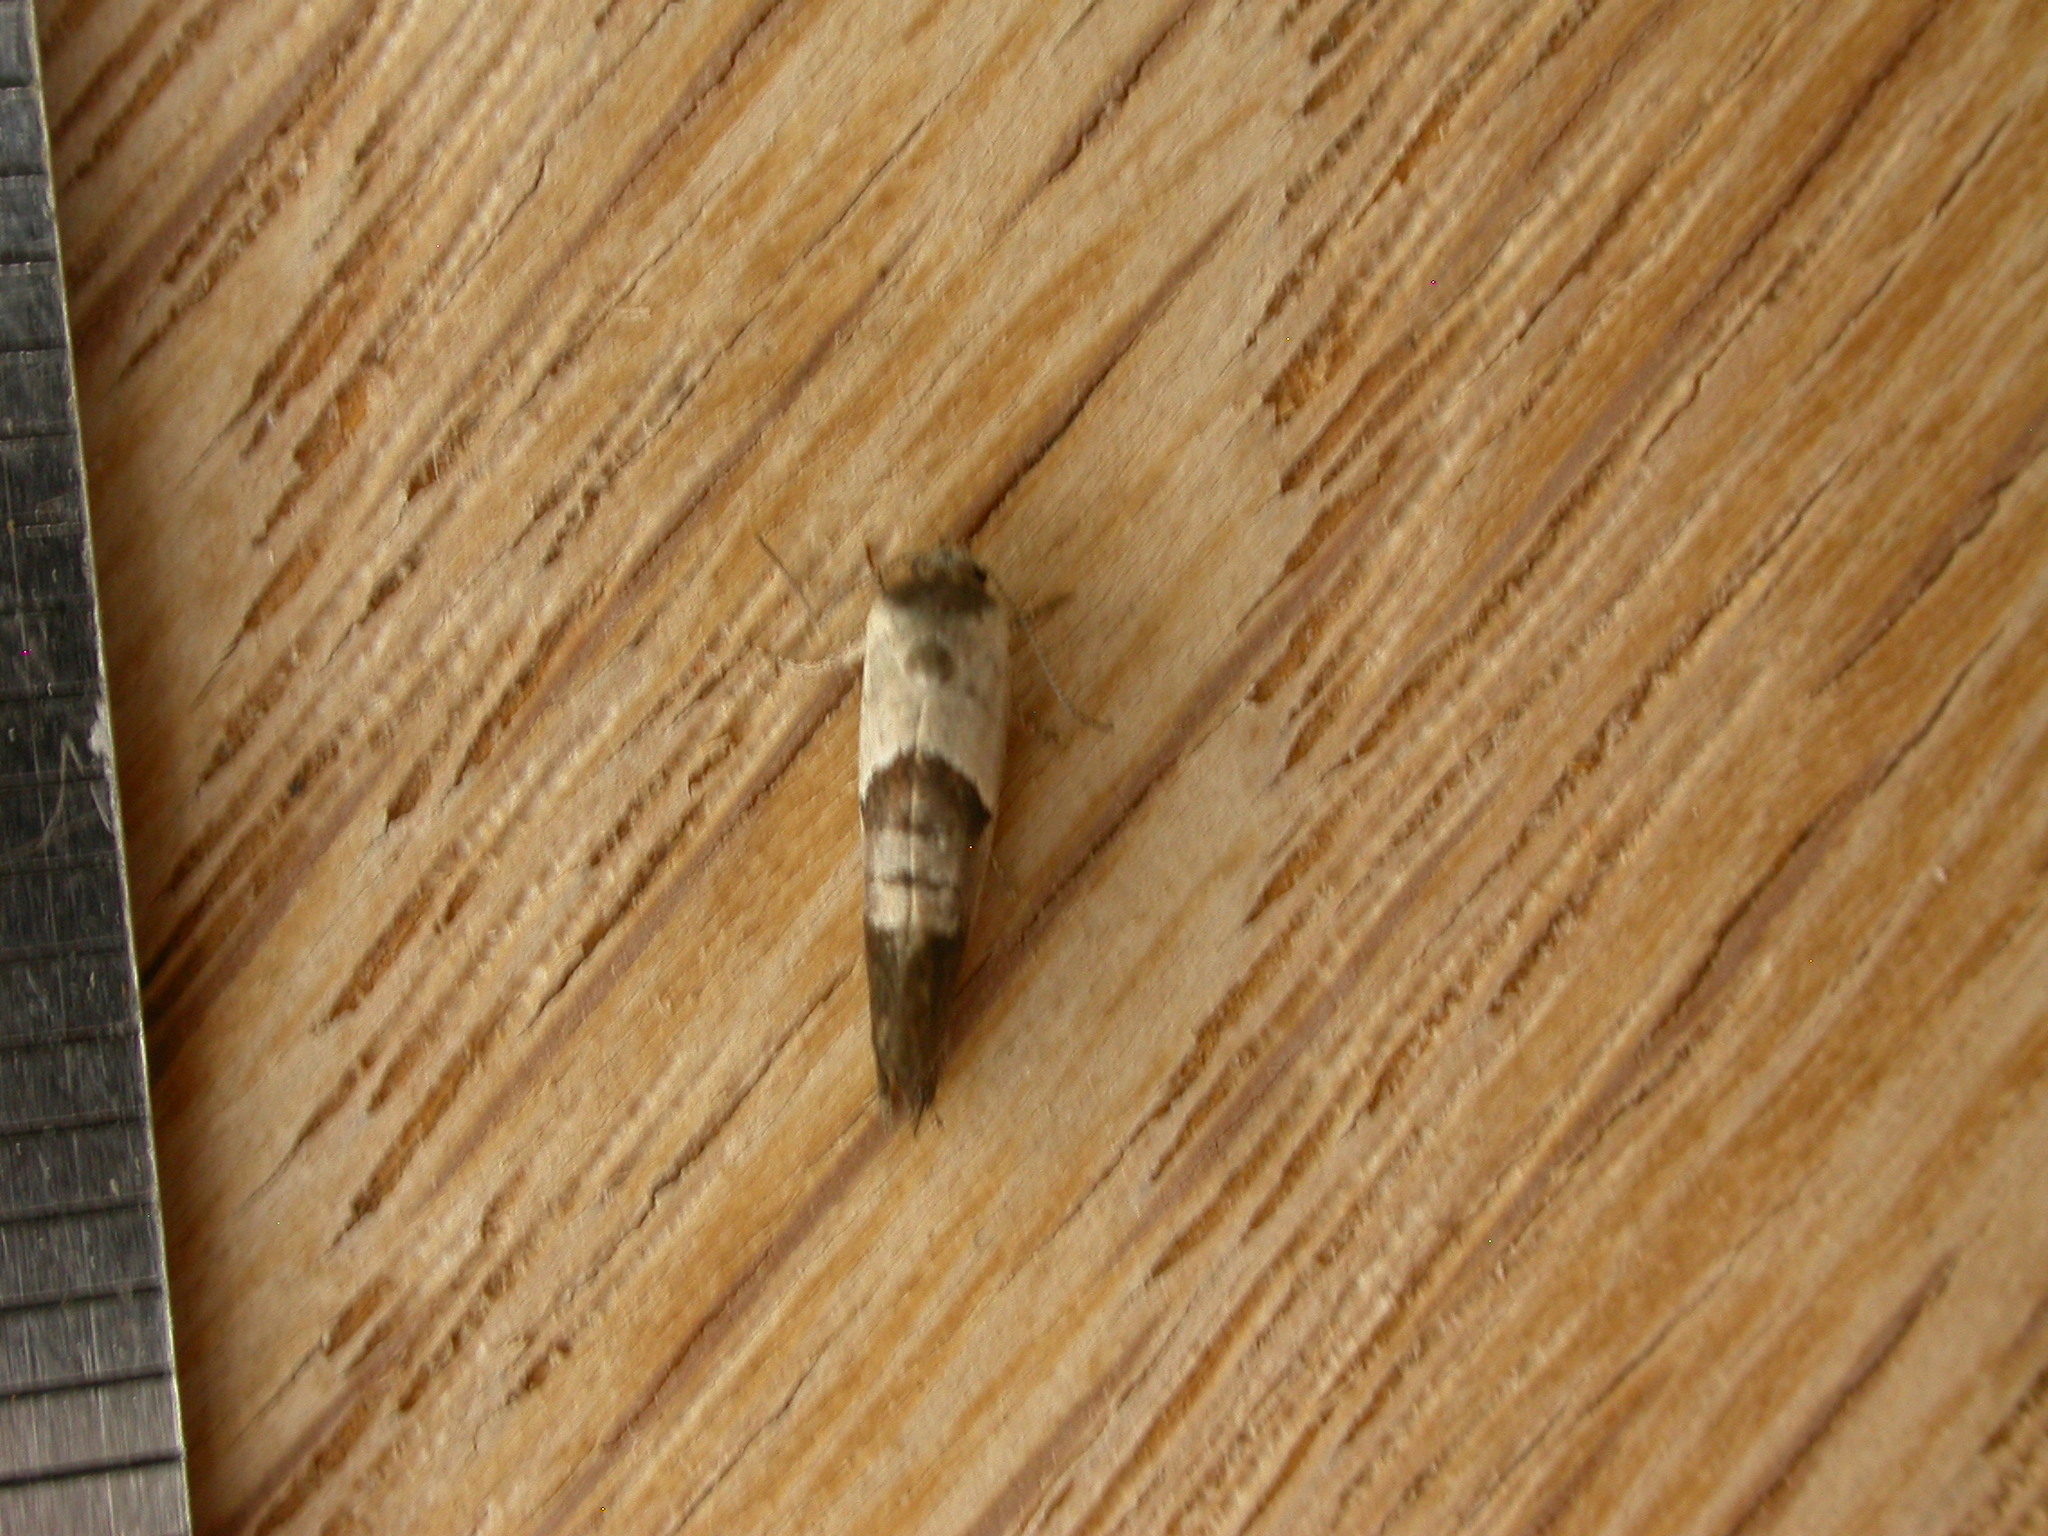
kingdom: Animalia
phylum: Arthropoda
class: Insecta
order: Lepidoptera
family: Depressariidae
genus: Eupselia
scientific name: Eupselia holoxantha
